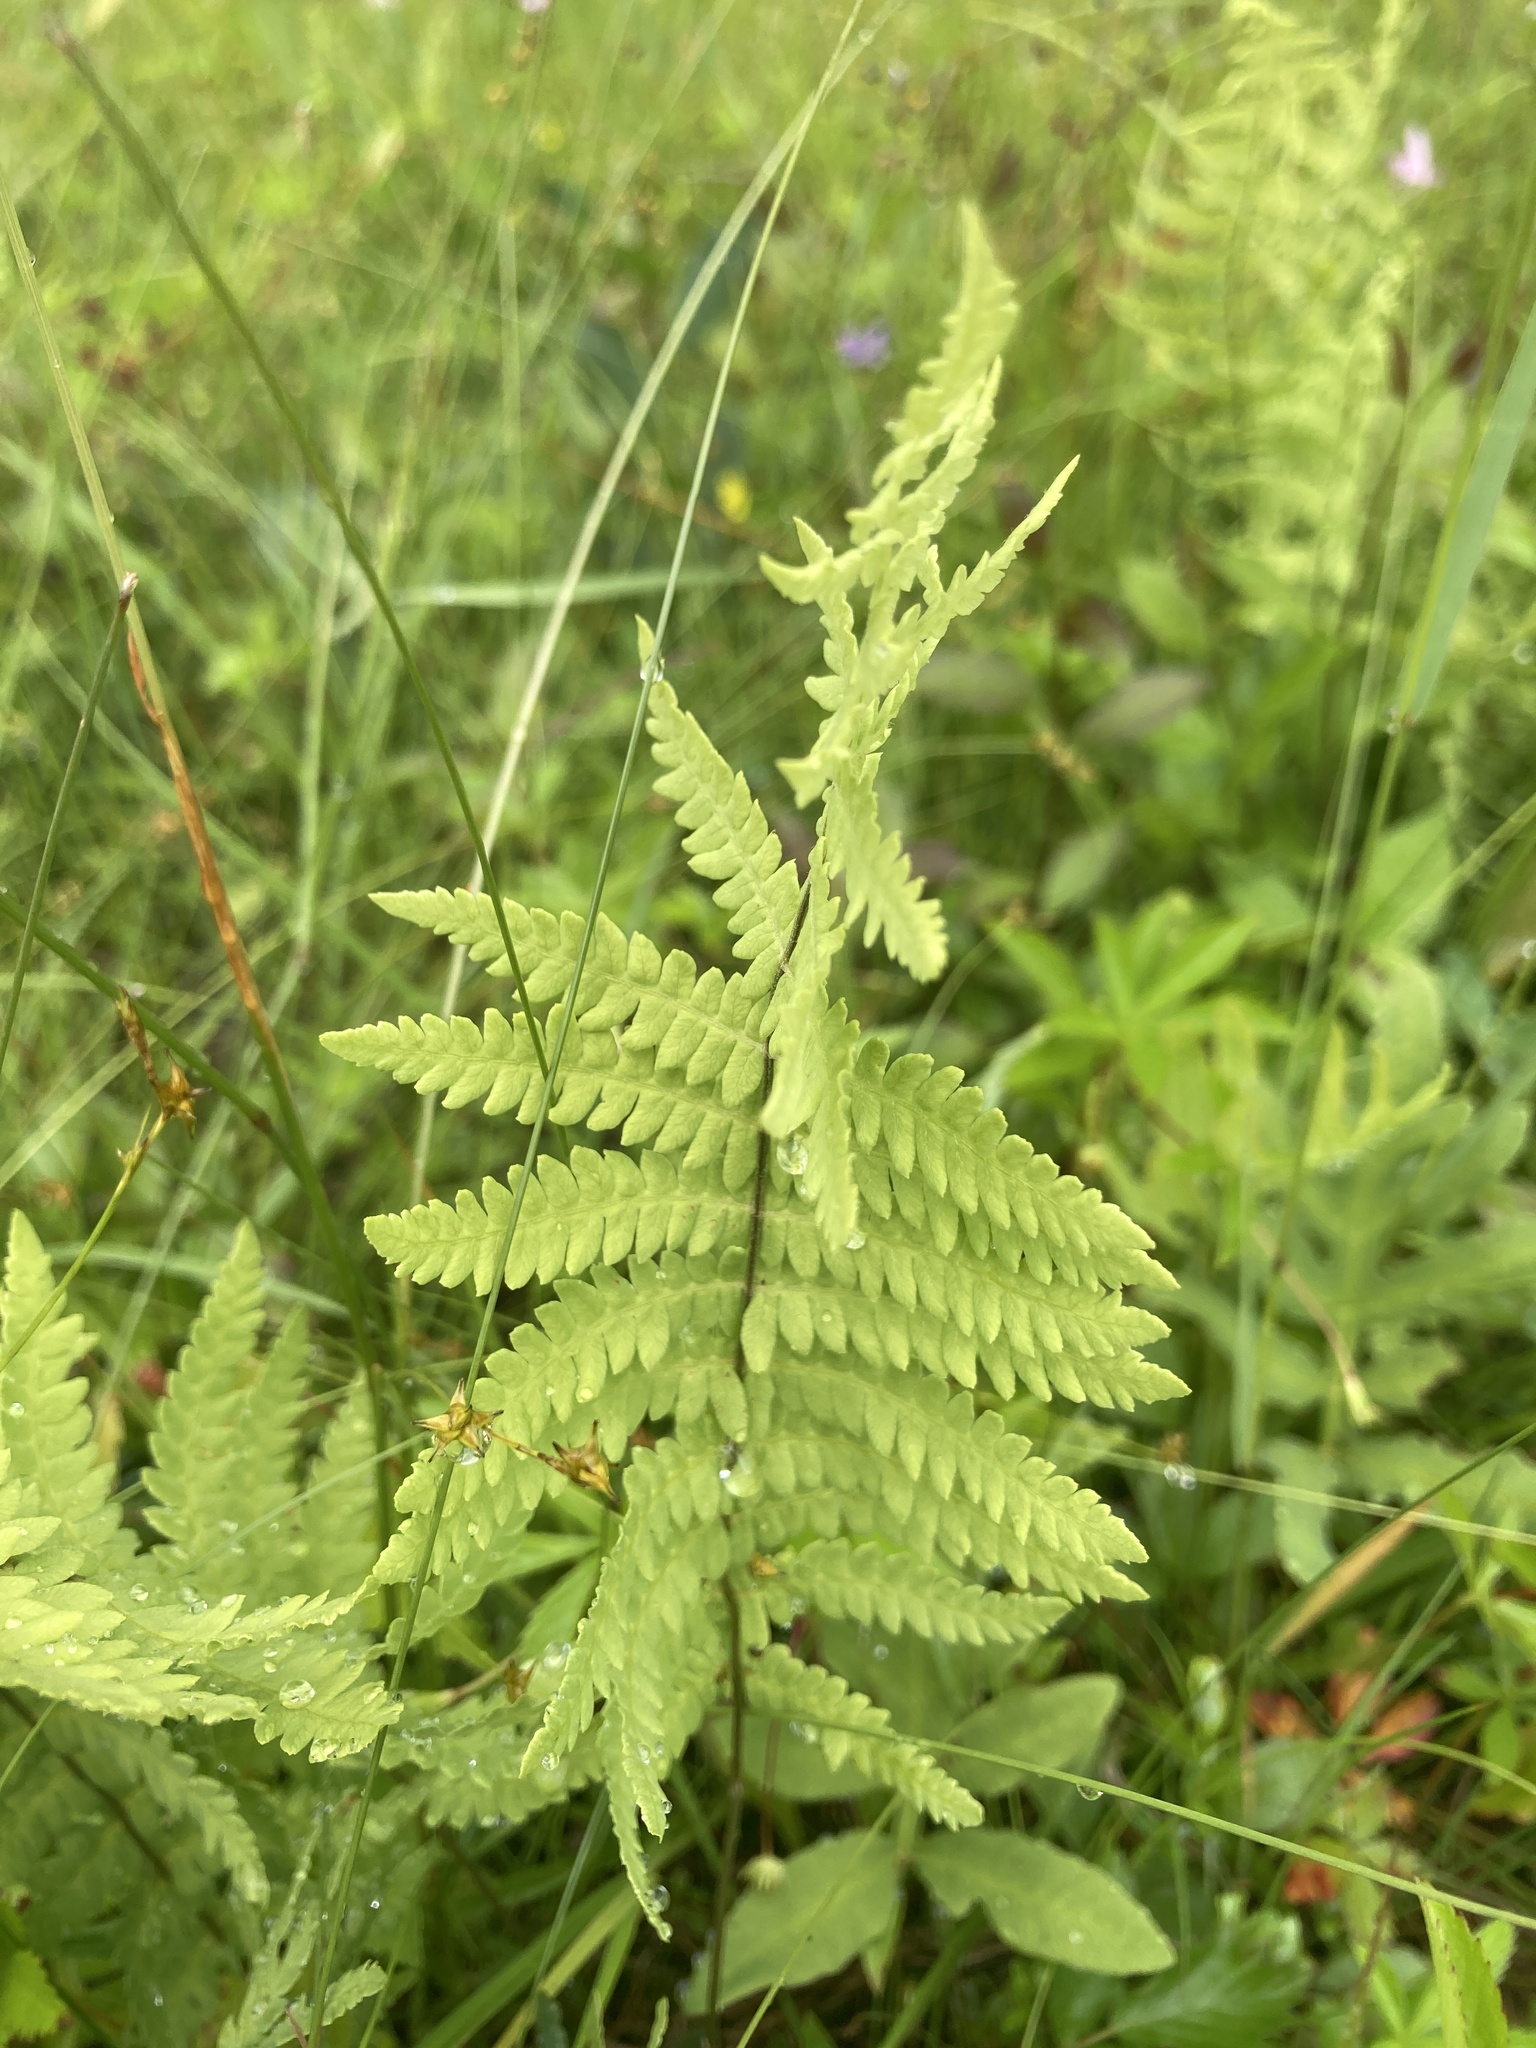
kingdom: Plantae
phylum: Tracheophyta
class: Polypodiopsida
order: Polypodiales
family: Thelypteridaceae
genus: Thelypteris
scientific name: Thelypteris palustris
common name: Marsh fern
